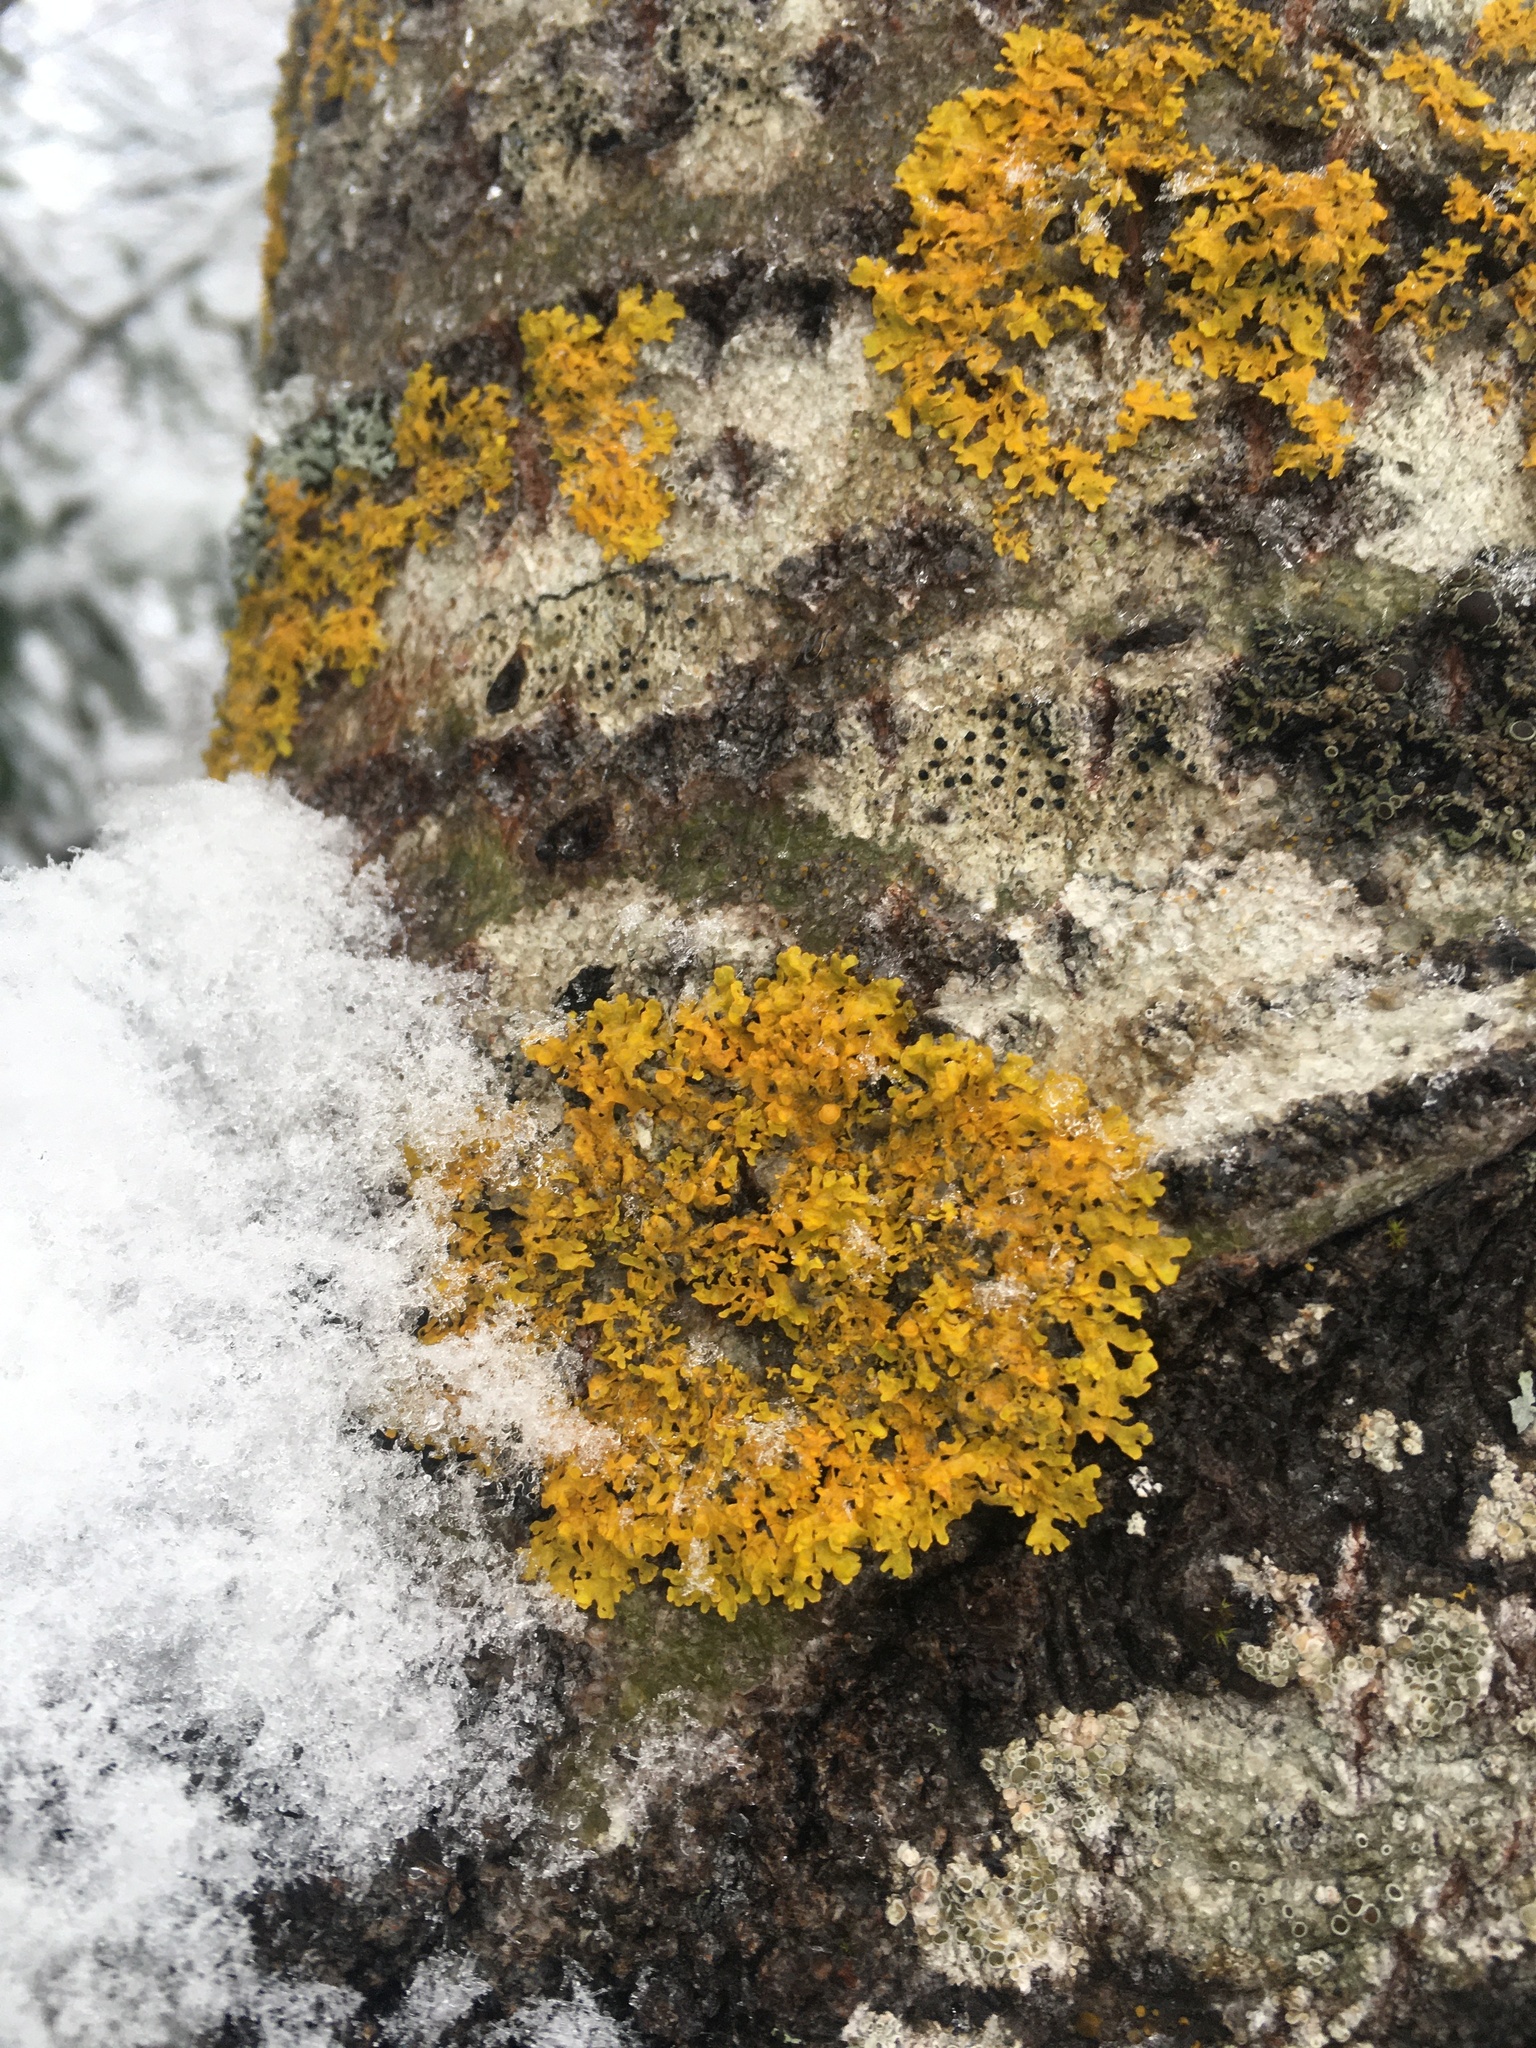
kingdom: Fungi
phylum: Ascomycota
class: Lecanoromycetes
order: Teloschistales
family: Teloschistaceae
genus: Xanthoria
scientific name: Xanthoria parietina
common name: Common orange lichen
